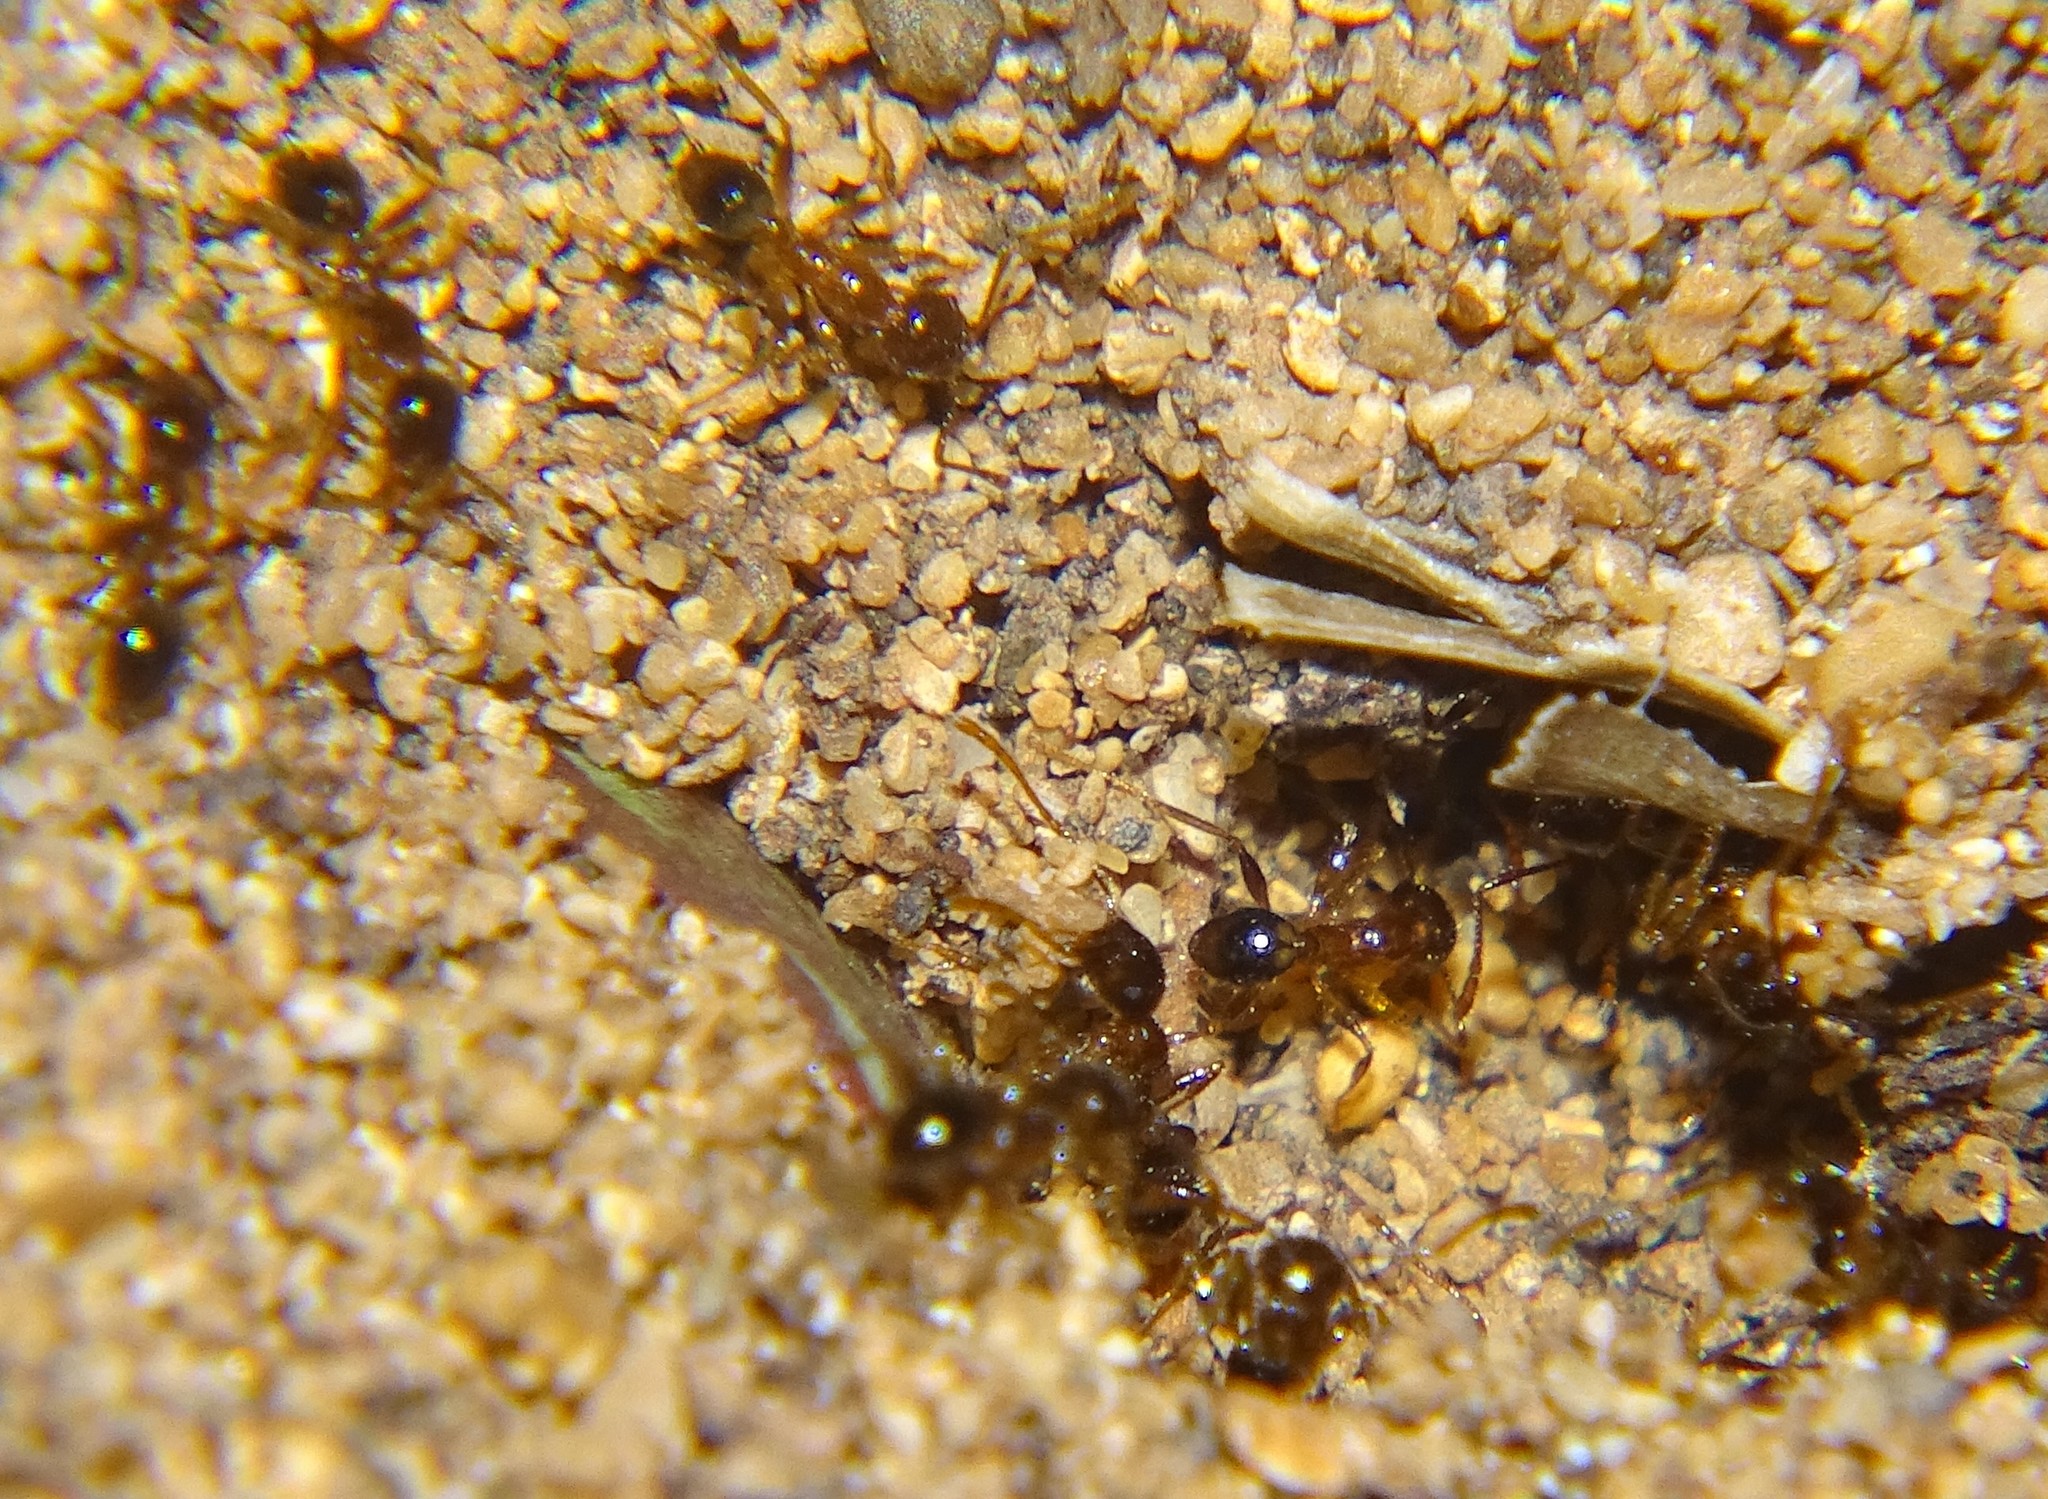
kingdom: Animalia
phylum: Arthropoda
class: Insecta
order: Hymenoptera
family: Formicidae
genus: Pheidole
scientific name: Pheidole megacephala
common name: Bigheaded ant
